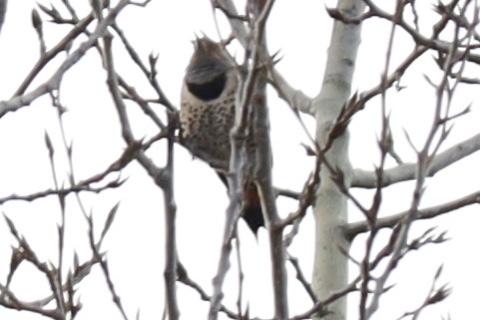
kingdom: Animalia
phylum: Chordata
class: Aves
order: Piciformes
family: Picidae
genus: Colaptes
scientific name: Colaptes auratus
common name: Northern flicker
